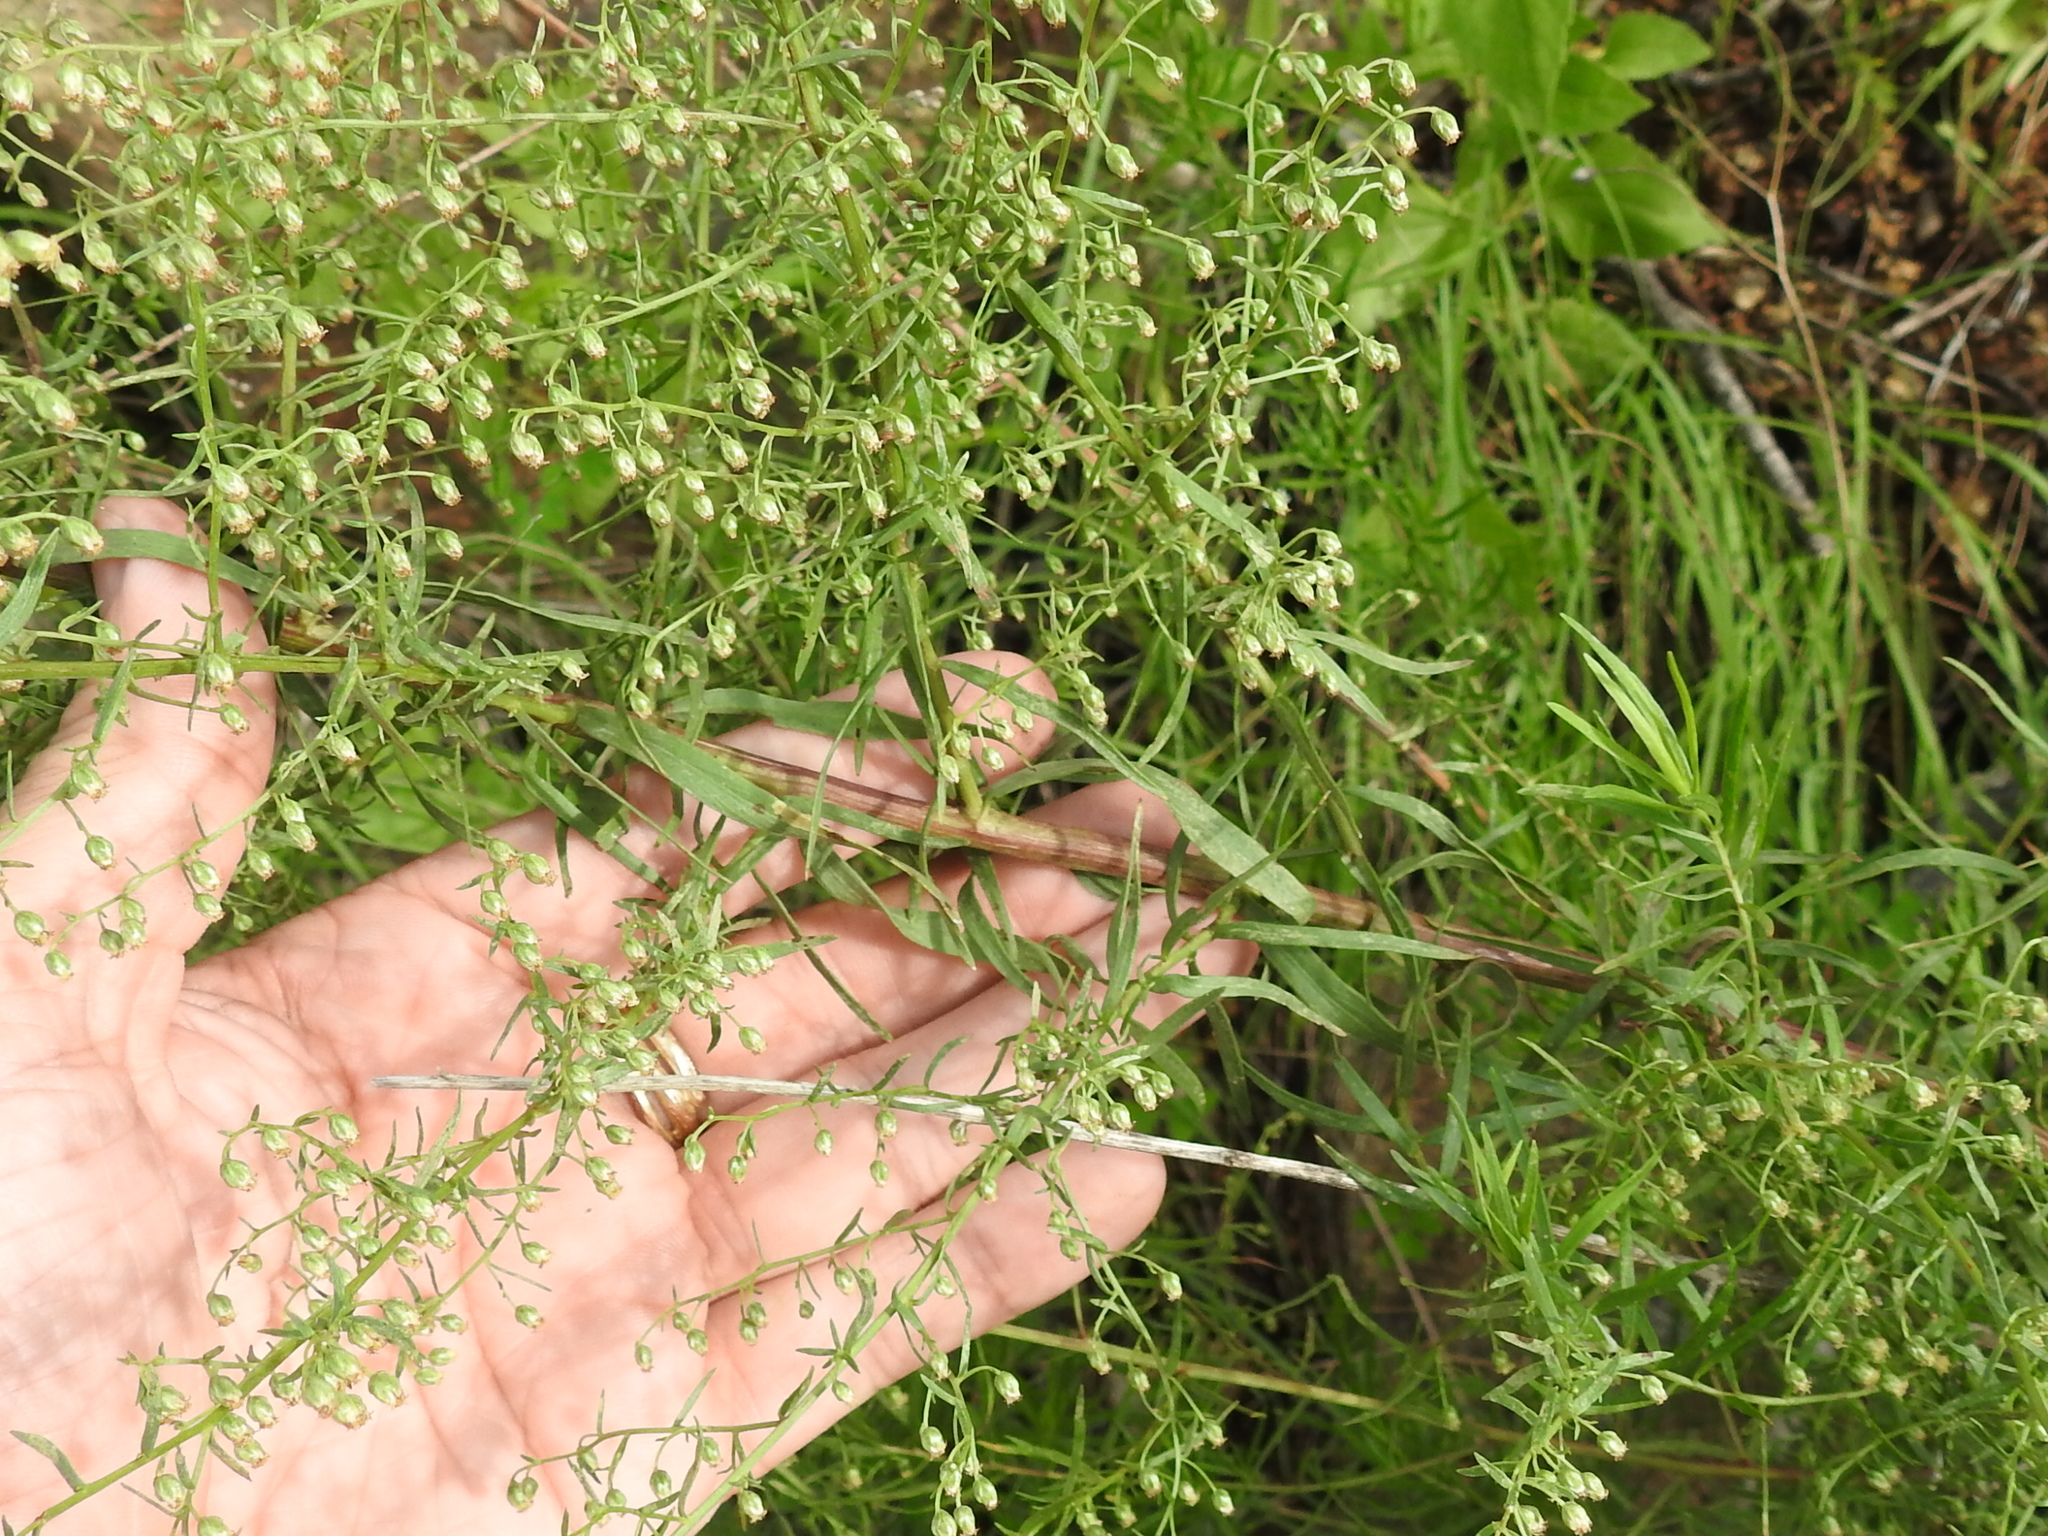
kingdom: Plantae
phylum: Tracheophyta
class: Magnoliopsida
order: Asterales
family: Asteraceae
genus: Artemisia
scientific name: Artemisia dracunculus
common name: Tarragon
